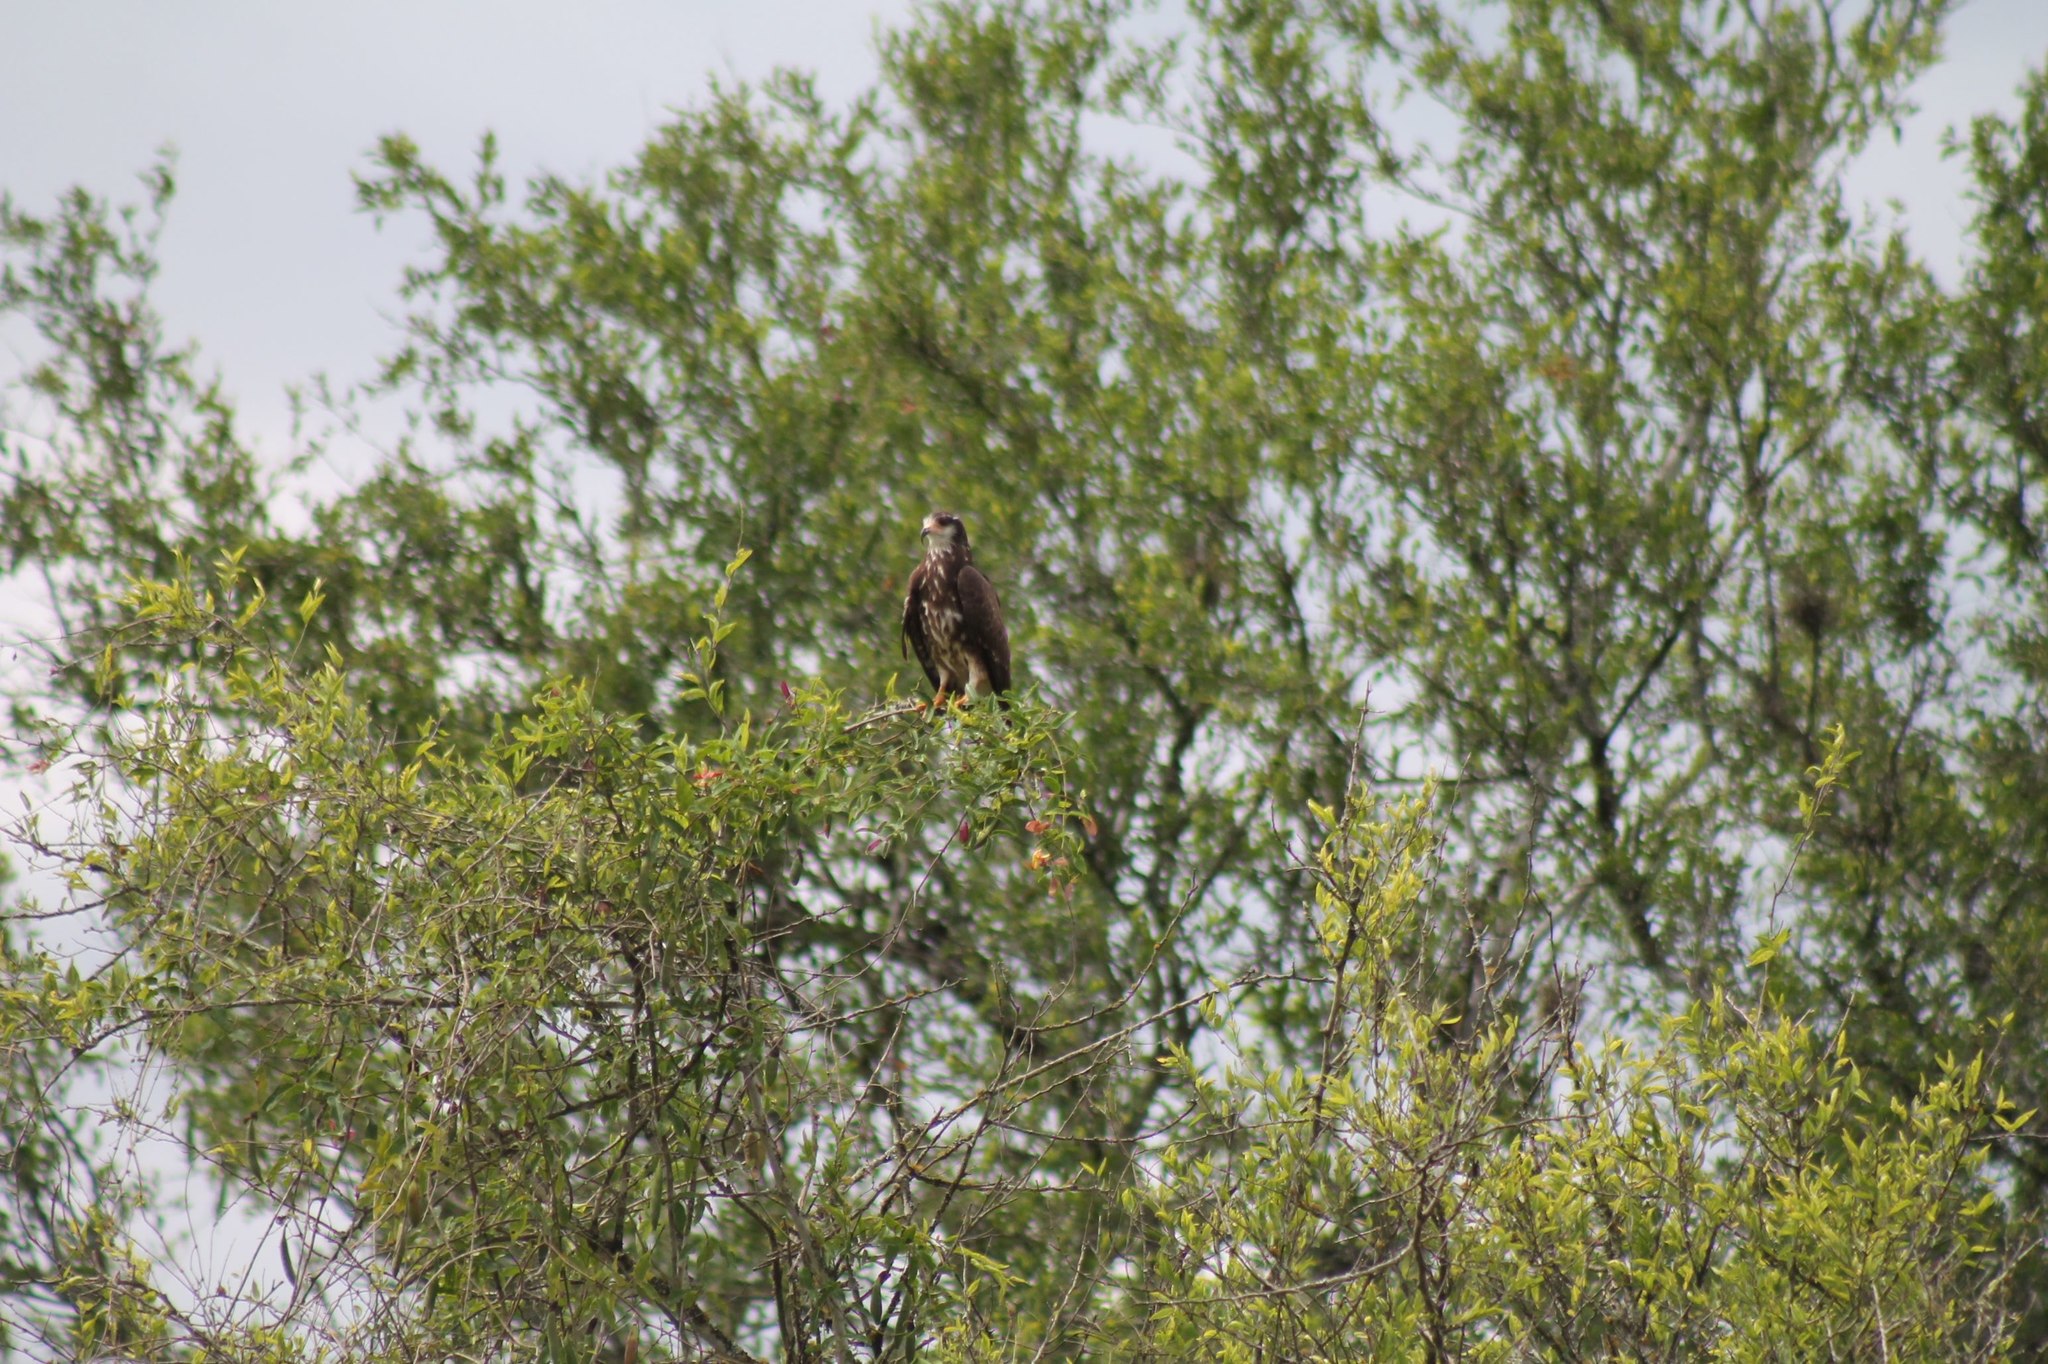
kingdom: Animalia
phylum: Chordata
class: Aves
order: Accipitriformes
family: Accipitridae
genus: Rostrhamus
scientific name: Rostrhamus sociabilis
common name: Snail kite
